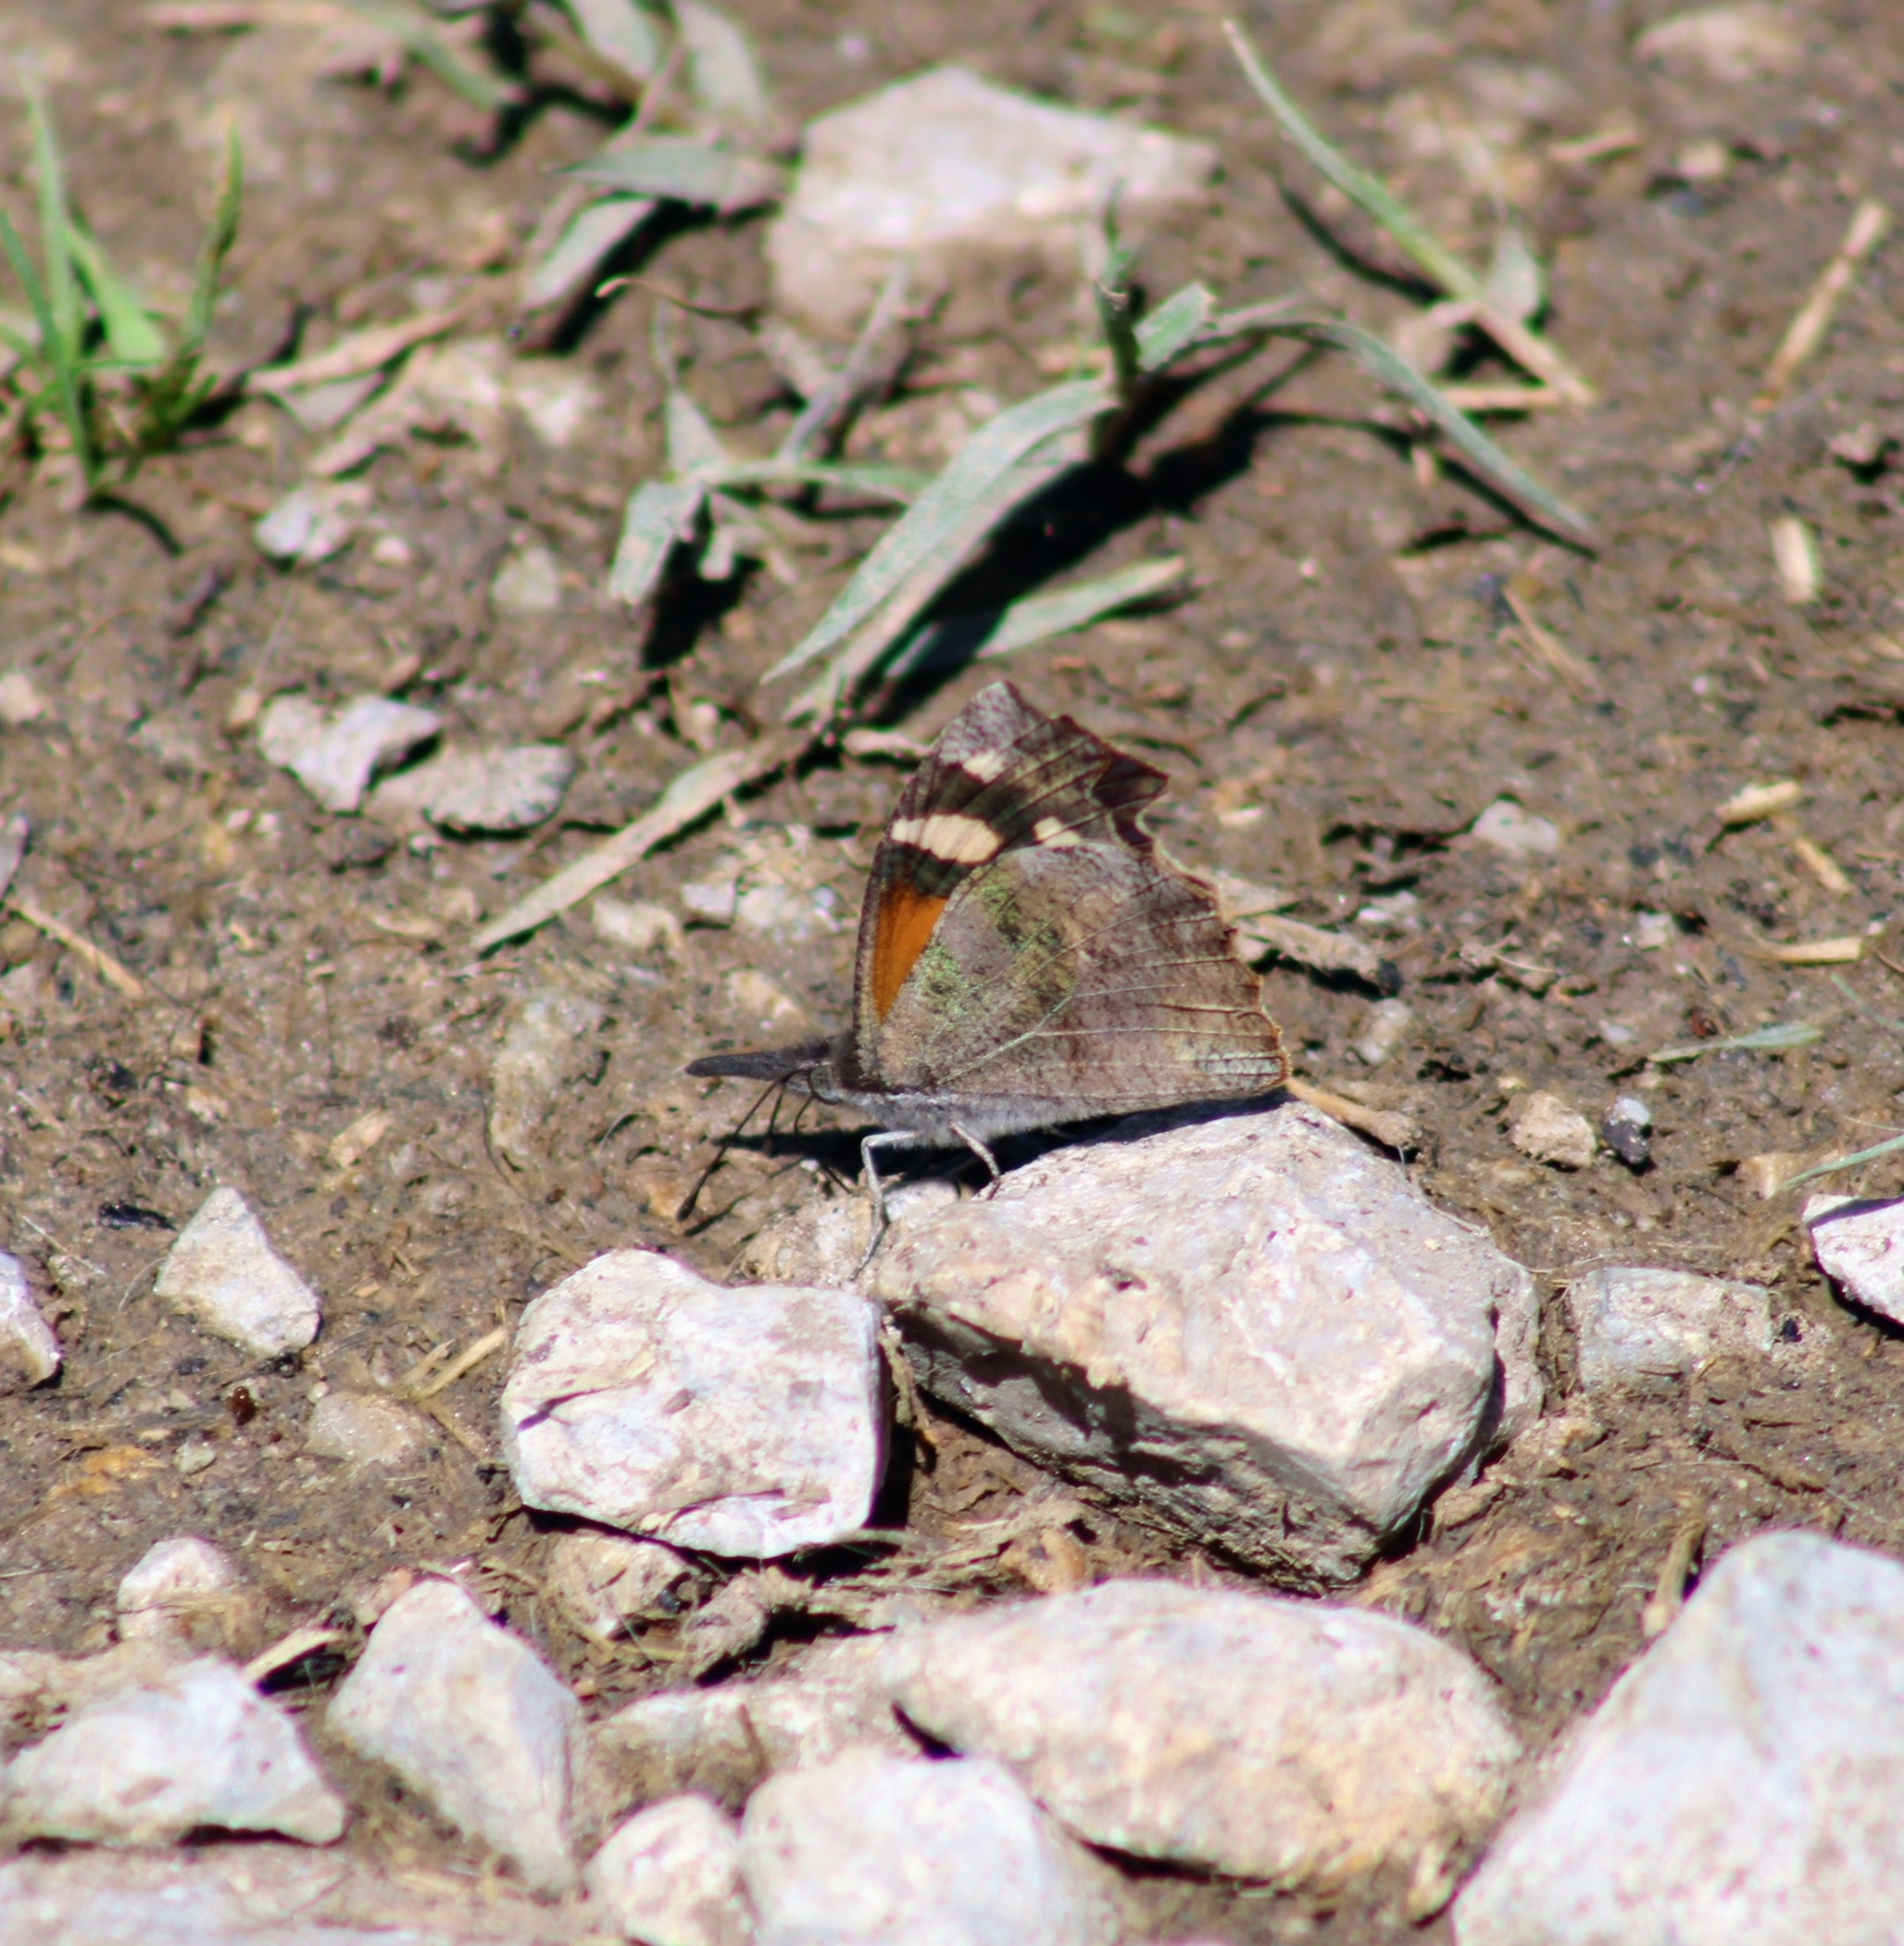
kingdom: Animalia
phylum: Arthropoda
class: Insecta
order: Lepidoptera
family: Nymphalidae
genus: Libytheana
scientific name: Libytheana carinenta
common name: American snout
